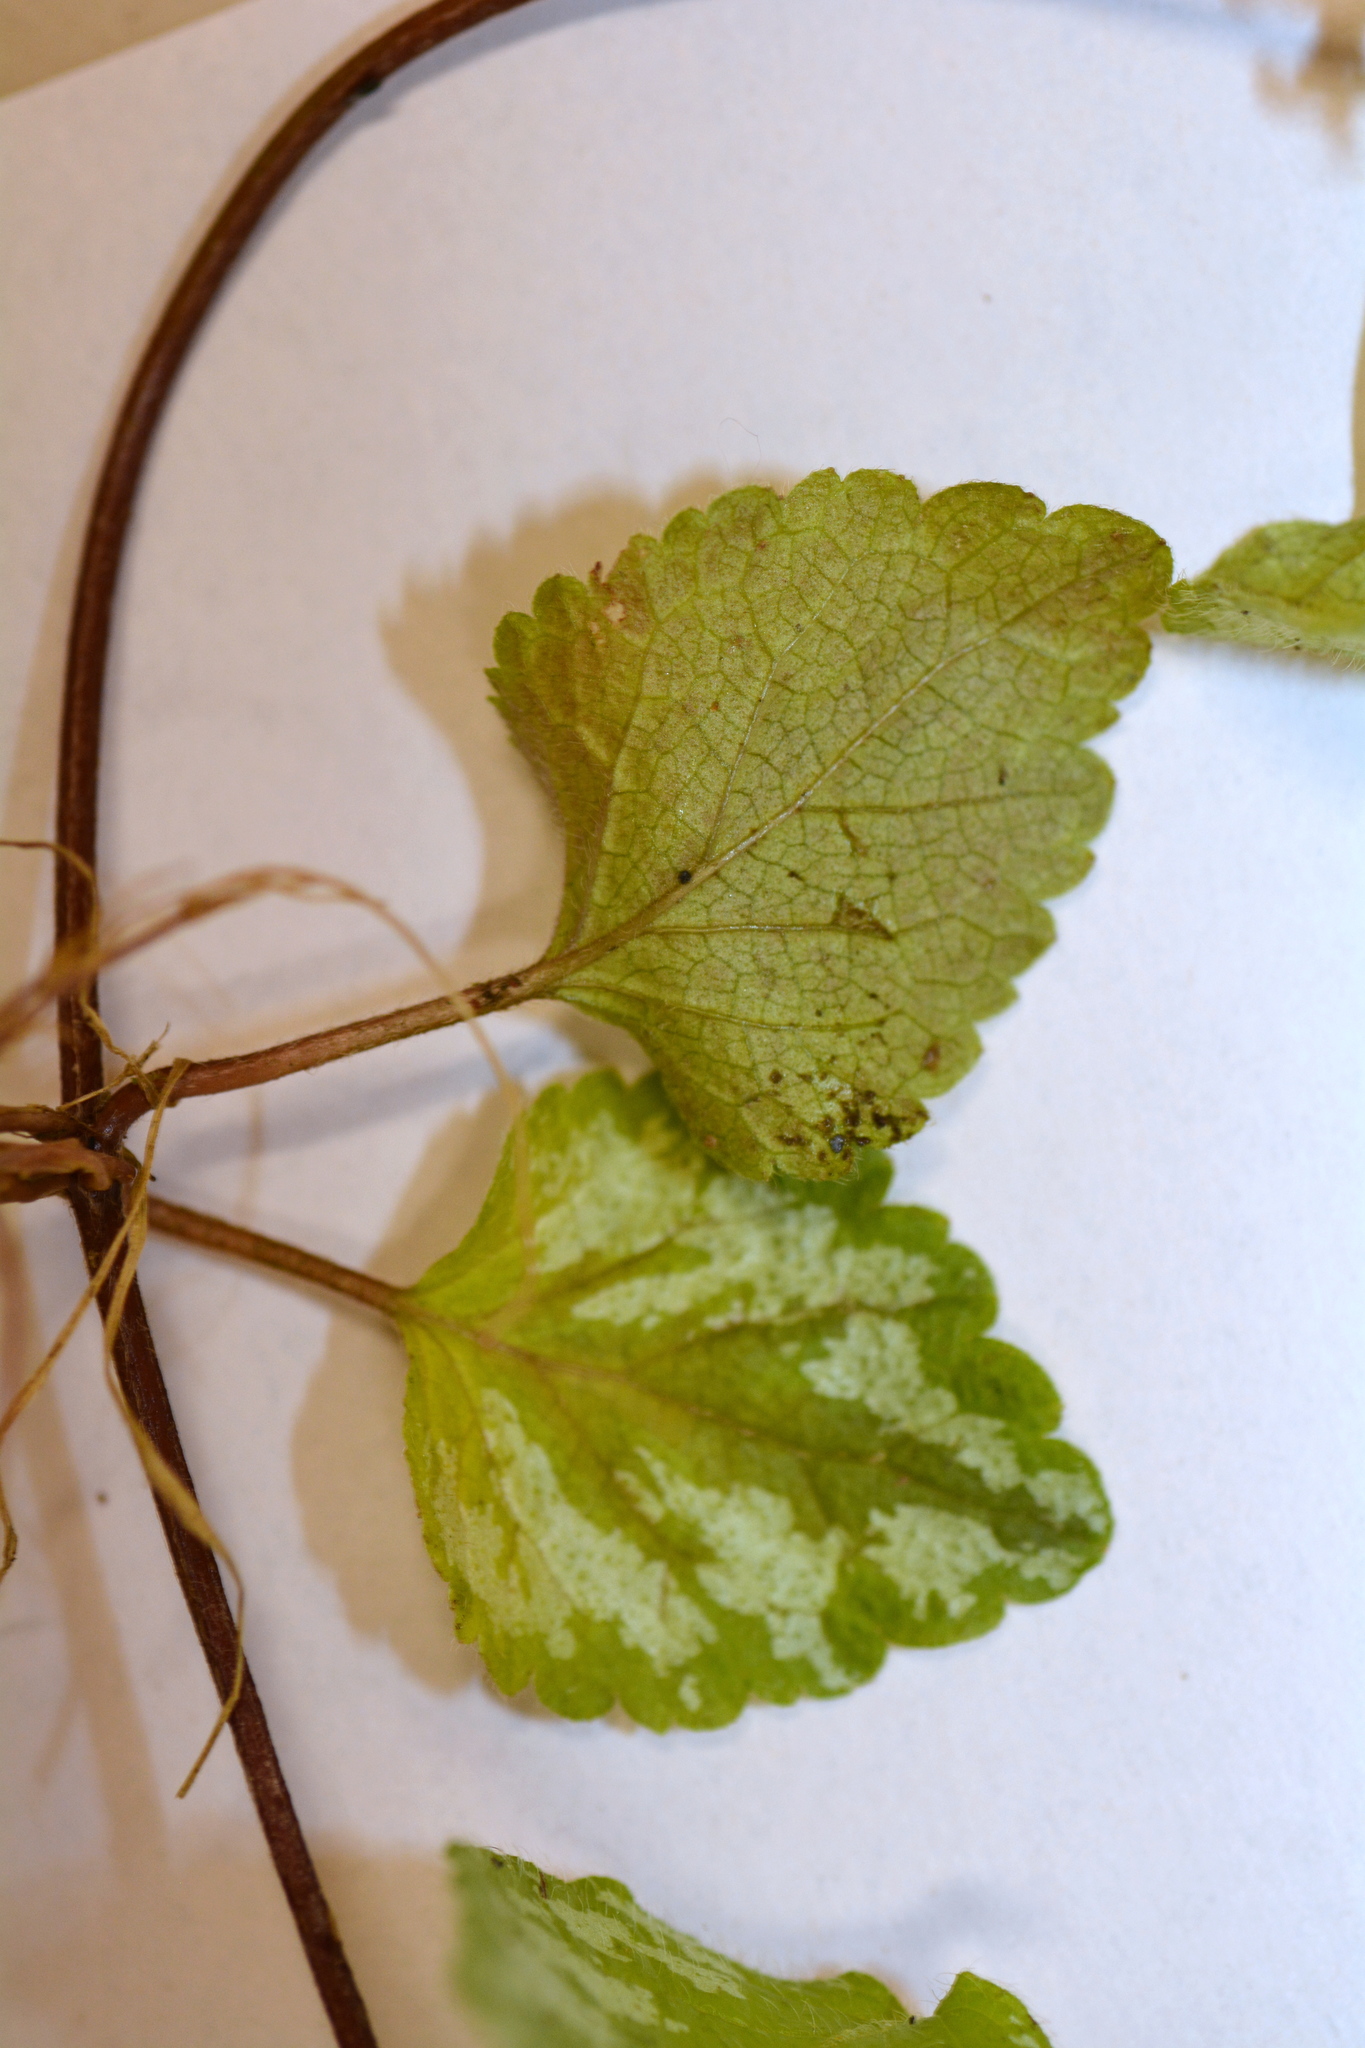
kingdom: Plantae
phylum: Tracheophyta
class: Magnoliopsida
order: Lamiales
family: Lamiaceae
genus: Lamium
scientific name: Lamium galeobdolon
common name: Yellow archangel
